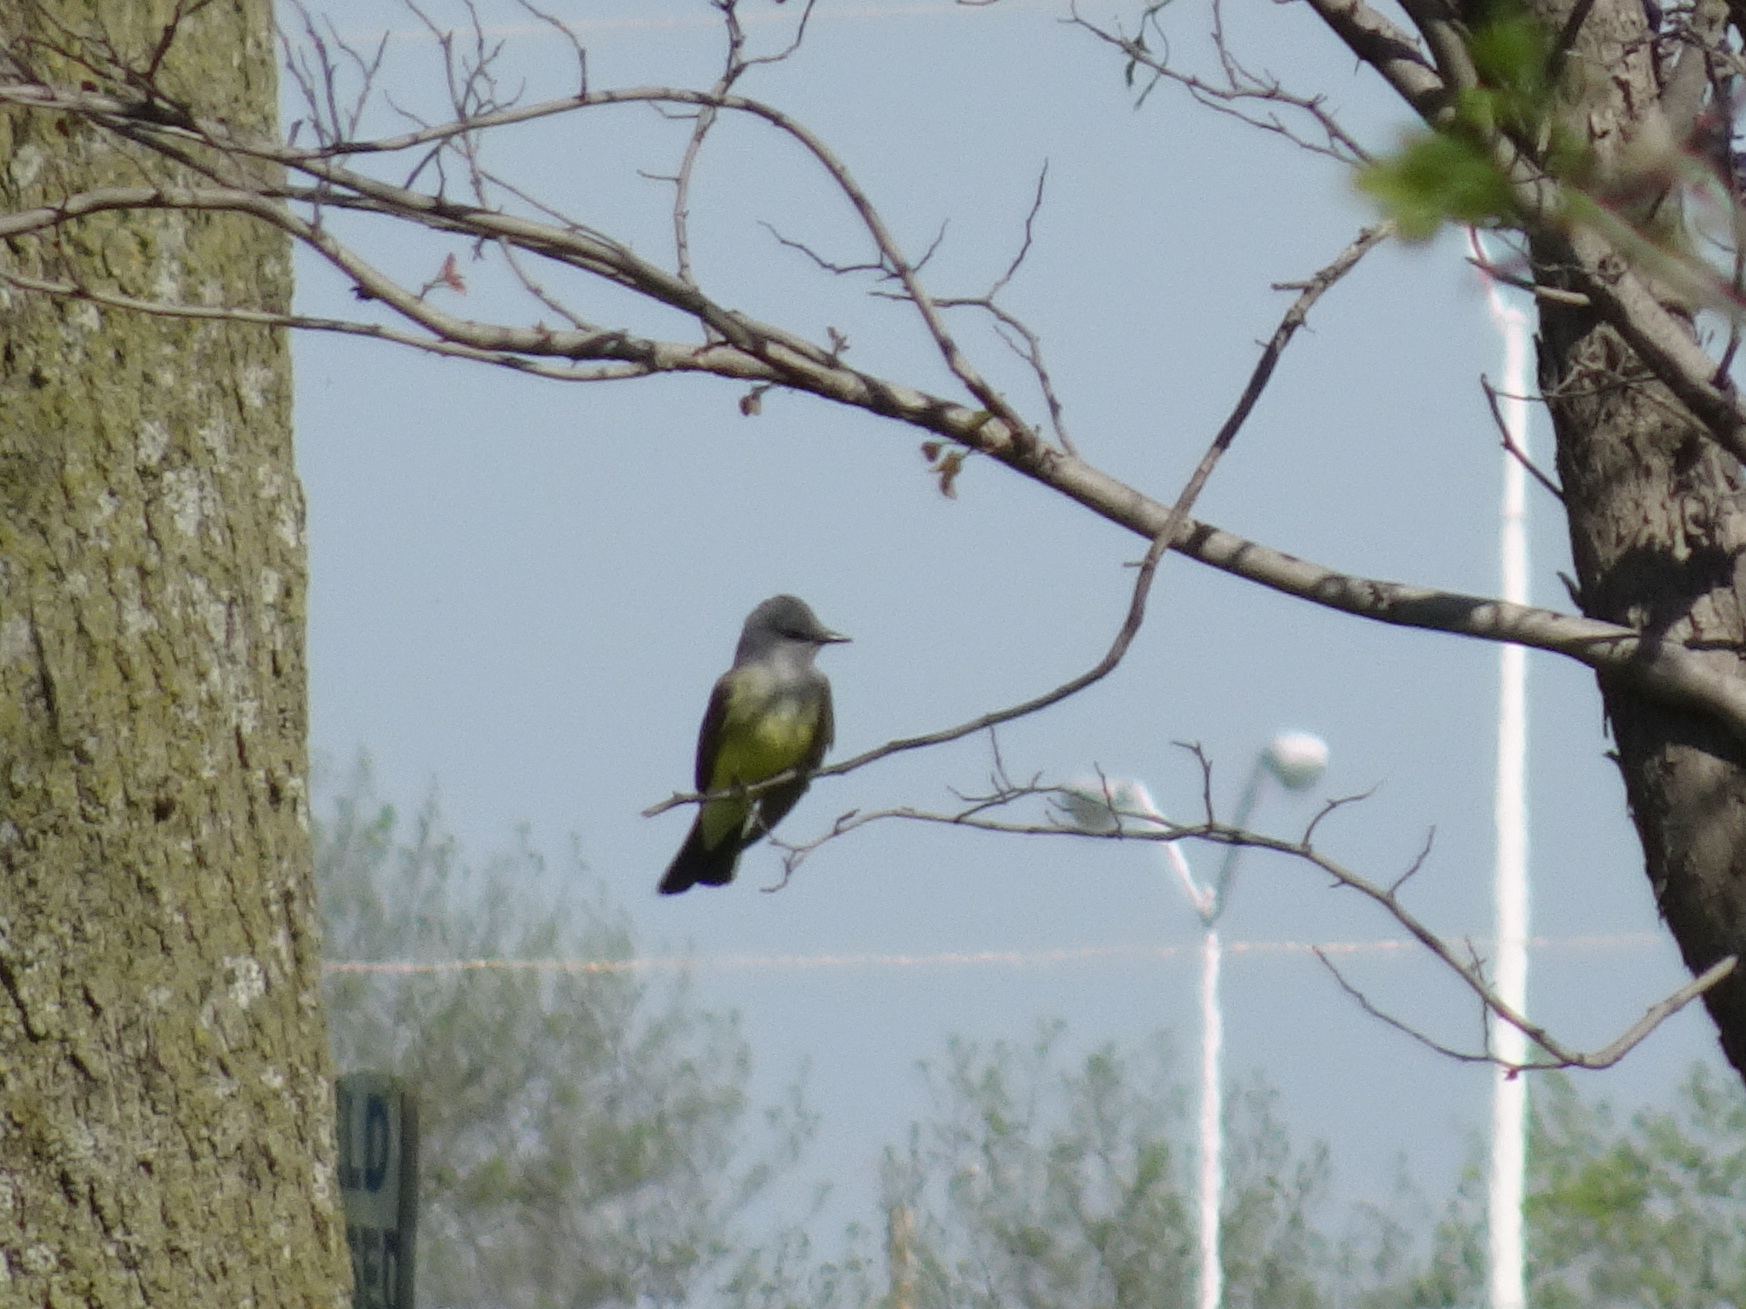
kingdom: Animalia
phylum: Chordata
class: Aves
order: Passeriformes
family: Tyrannidae
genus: Tyrannus
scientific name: Tyrannus verticalis
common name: Western kingbird
